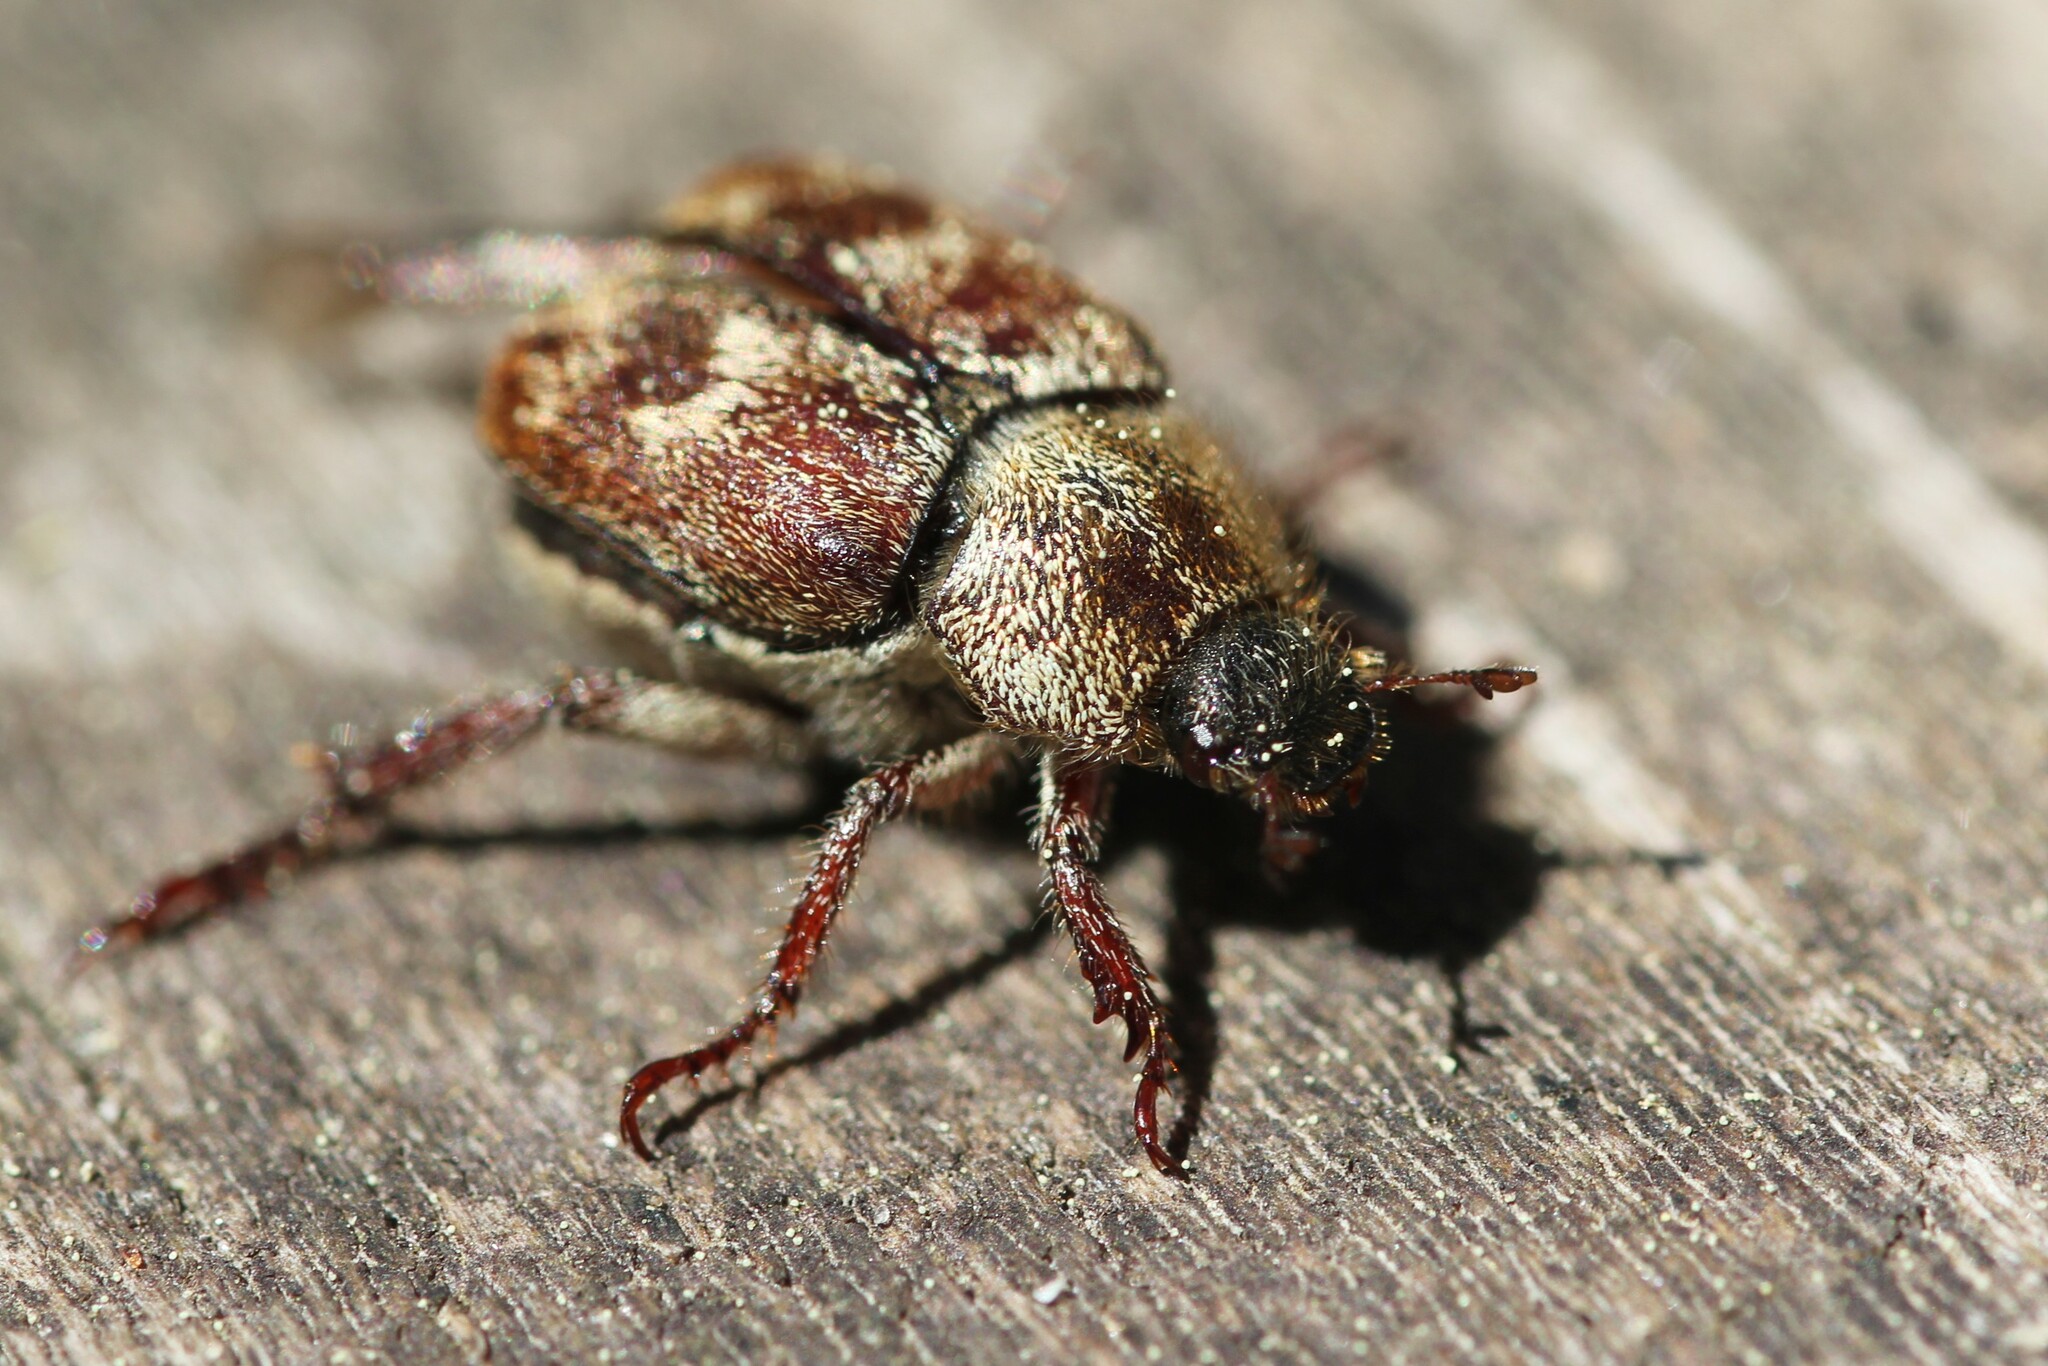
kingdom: Animalia
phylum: Arthropoda
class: Insecta
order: Coleoptera
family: Scarabaeidae
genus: Hoplia
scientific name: Hoplia trifasciata
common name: Three-lined hoplia
